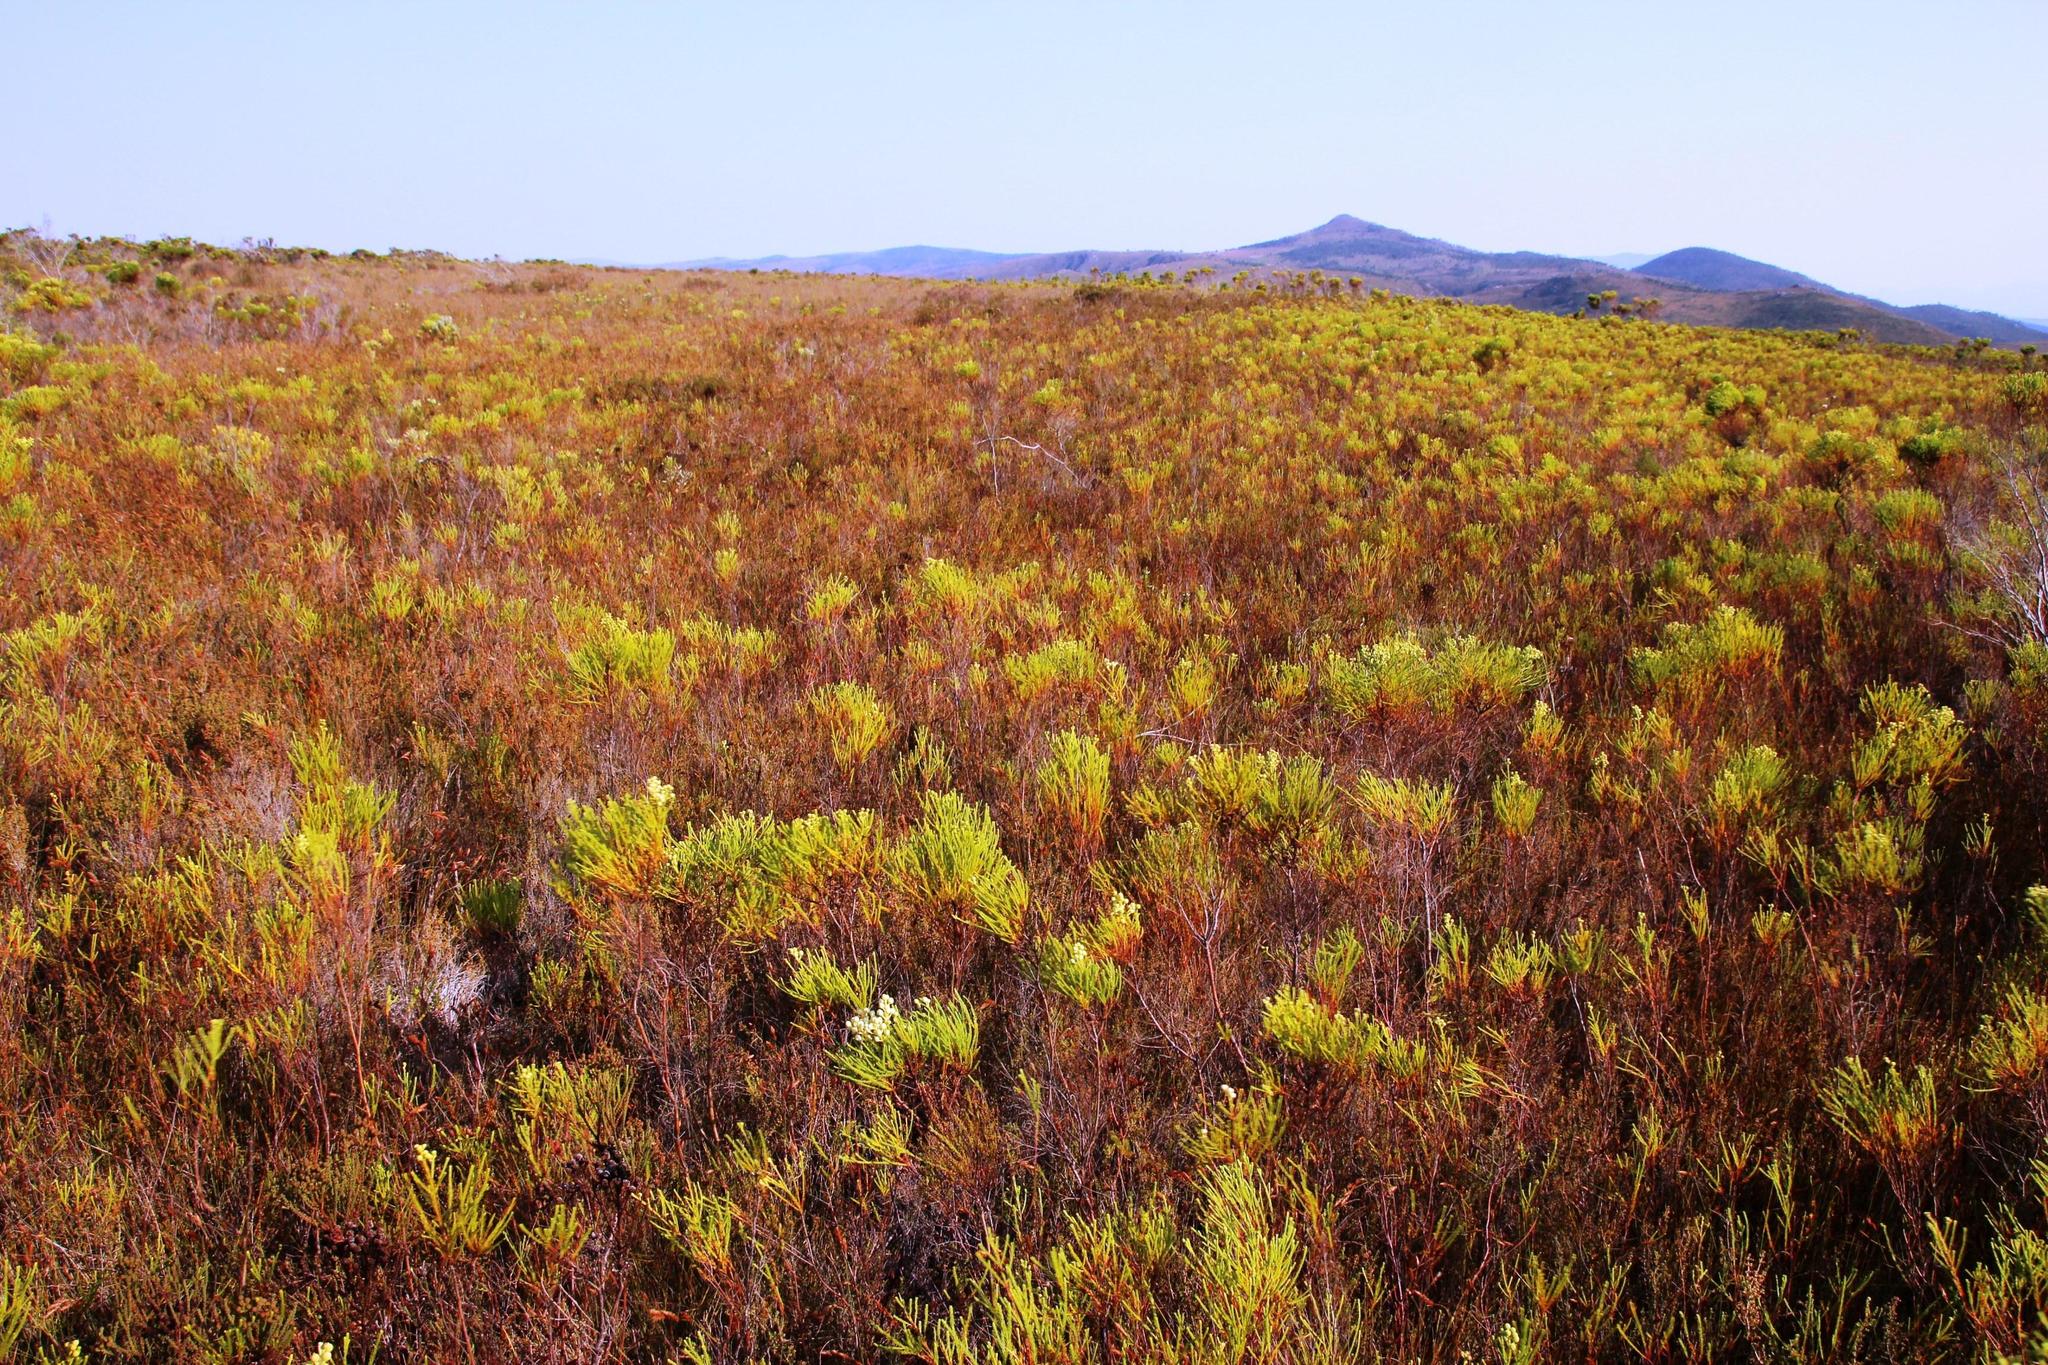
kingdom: Plantae
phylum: Tracheophyta
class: Magnoliopsida
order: Bruniales
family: Bruniaceae
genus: Berzelia
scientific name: Berzelia lanuginosa
